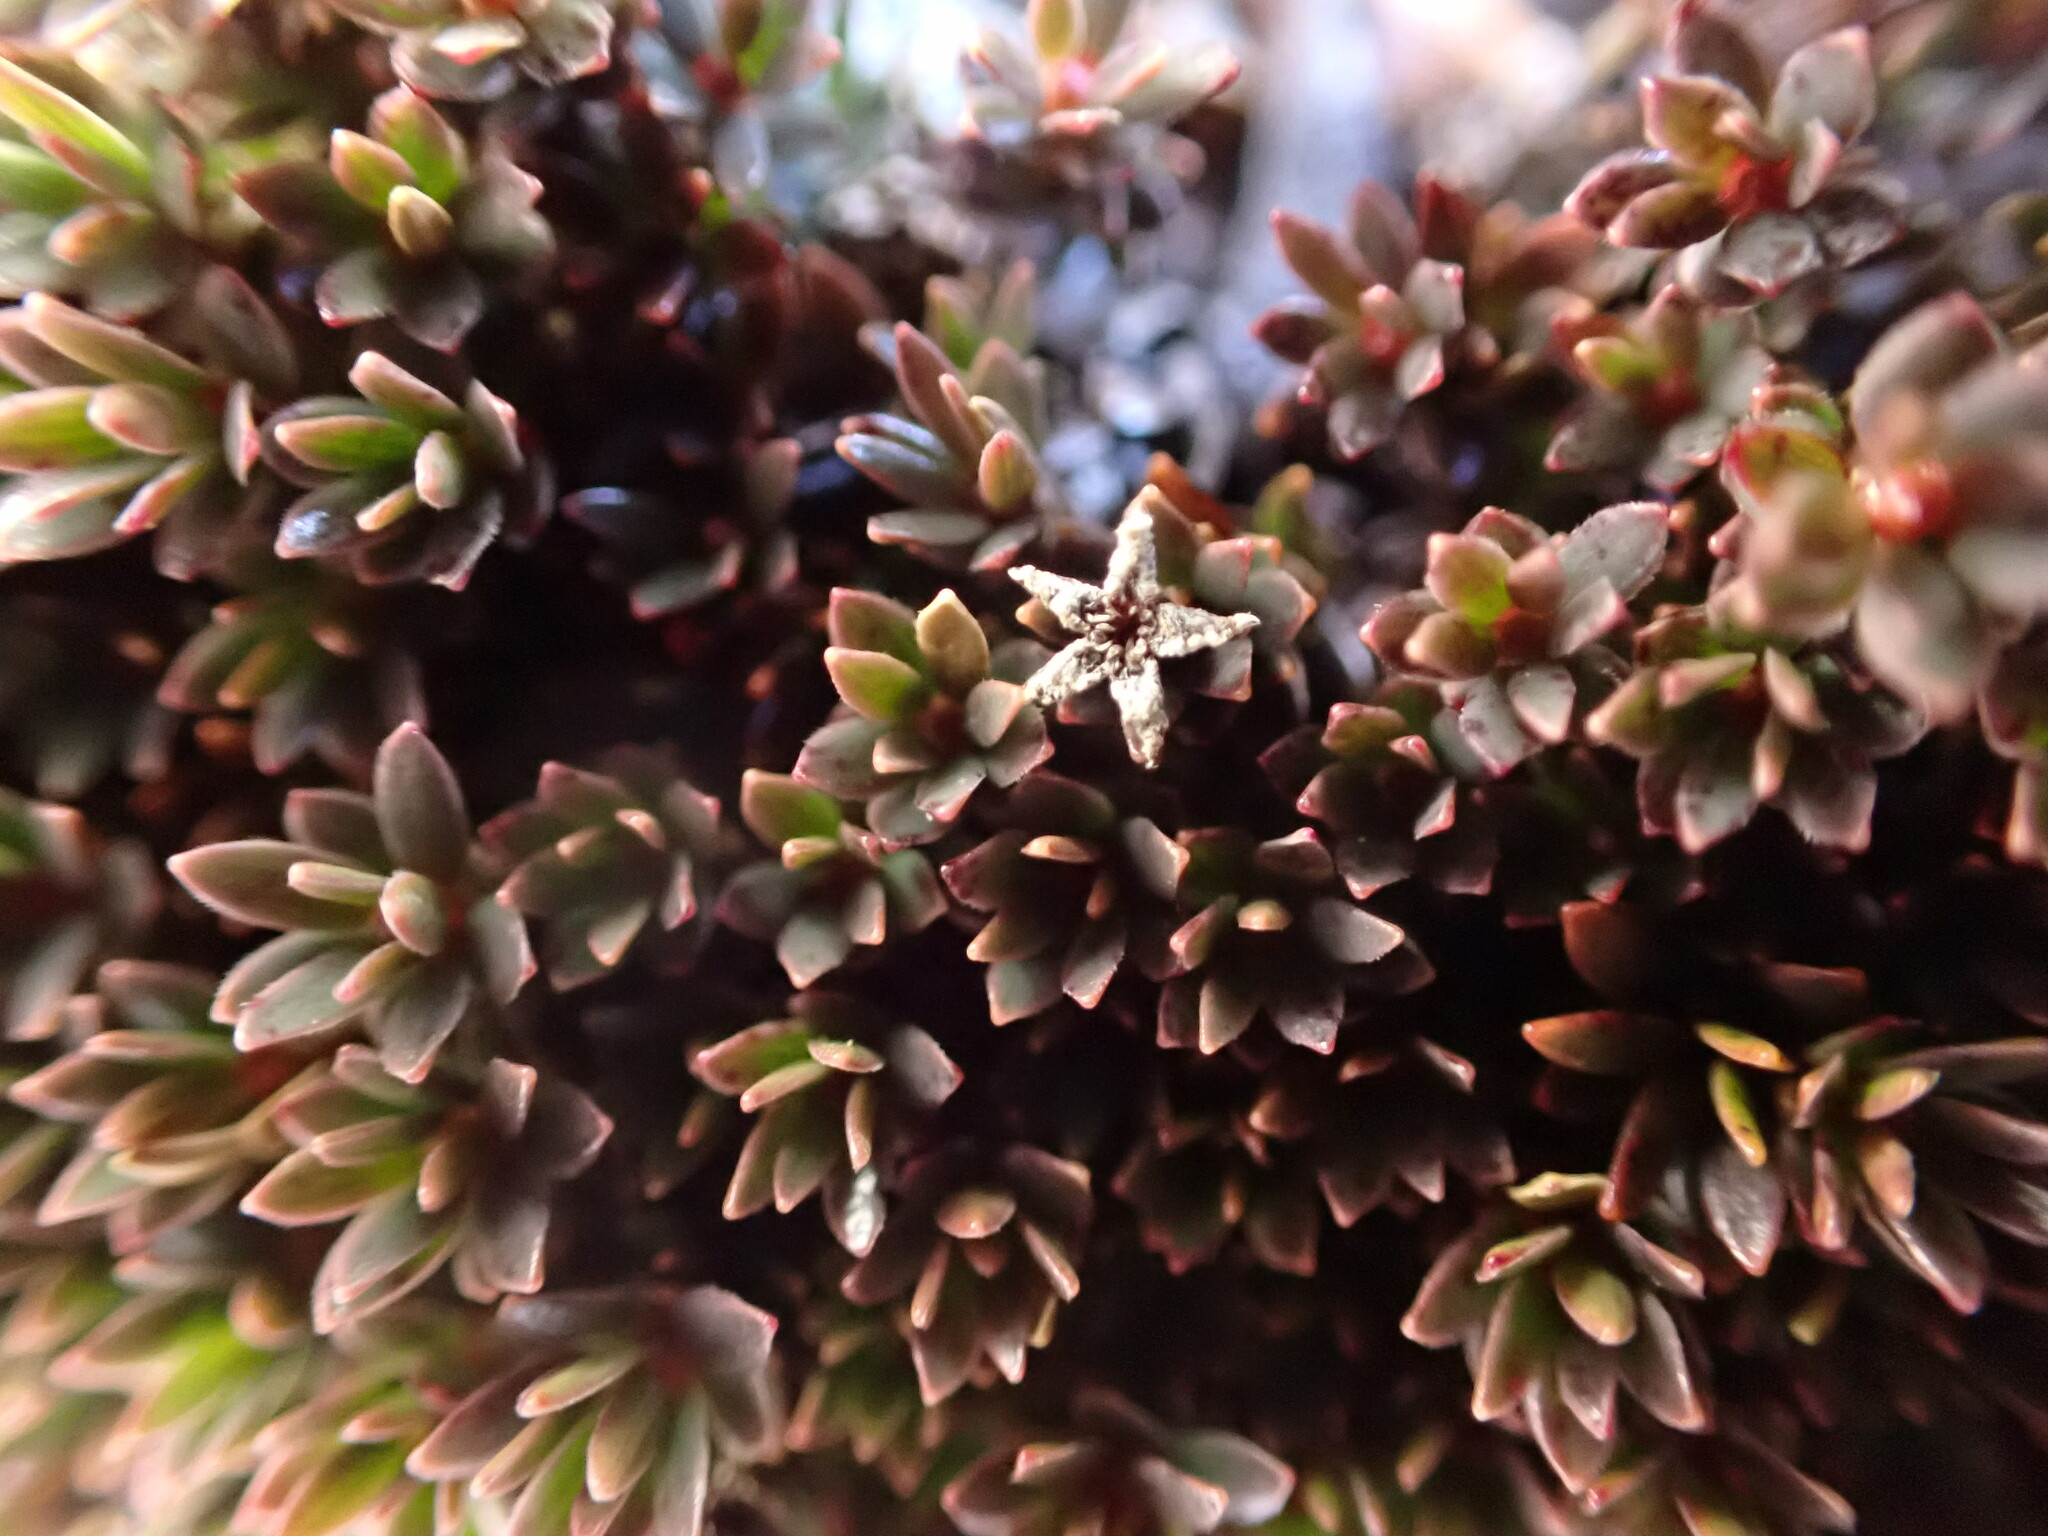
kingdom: Plantae
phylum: Tracheophyta
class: Magnoliopsida
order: Ericales
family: Ericaceae
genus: Pentachondra
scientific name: Pentachondra pumila
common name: Carpet-heath
